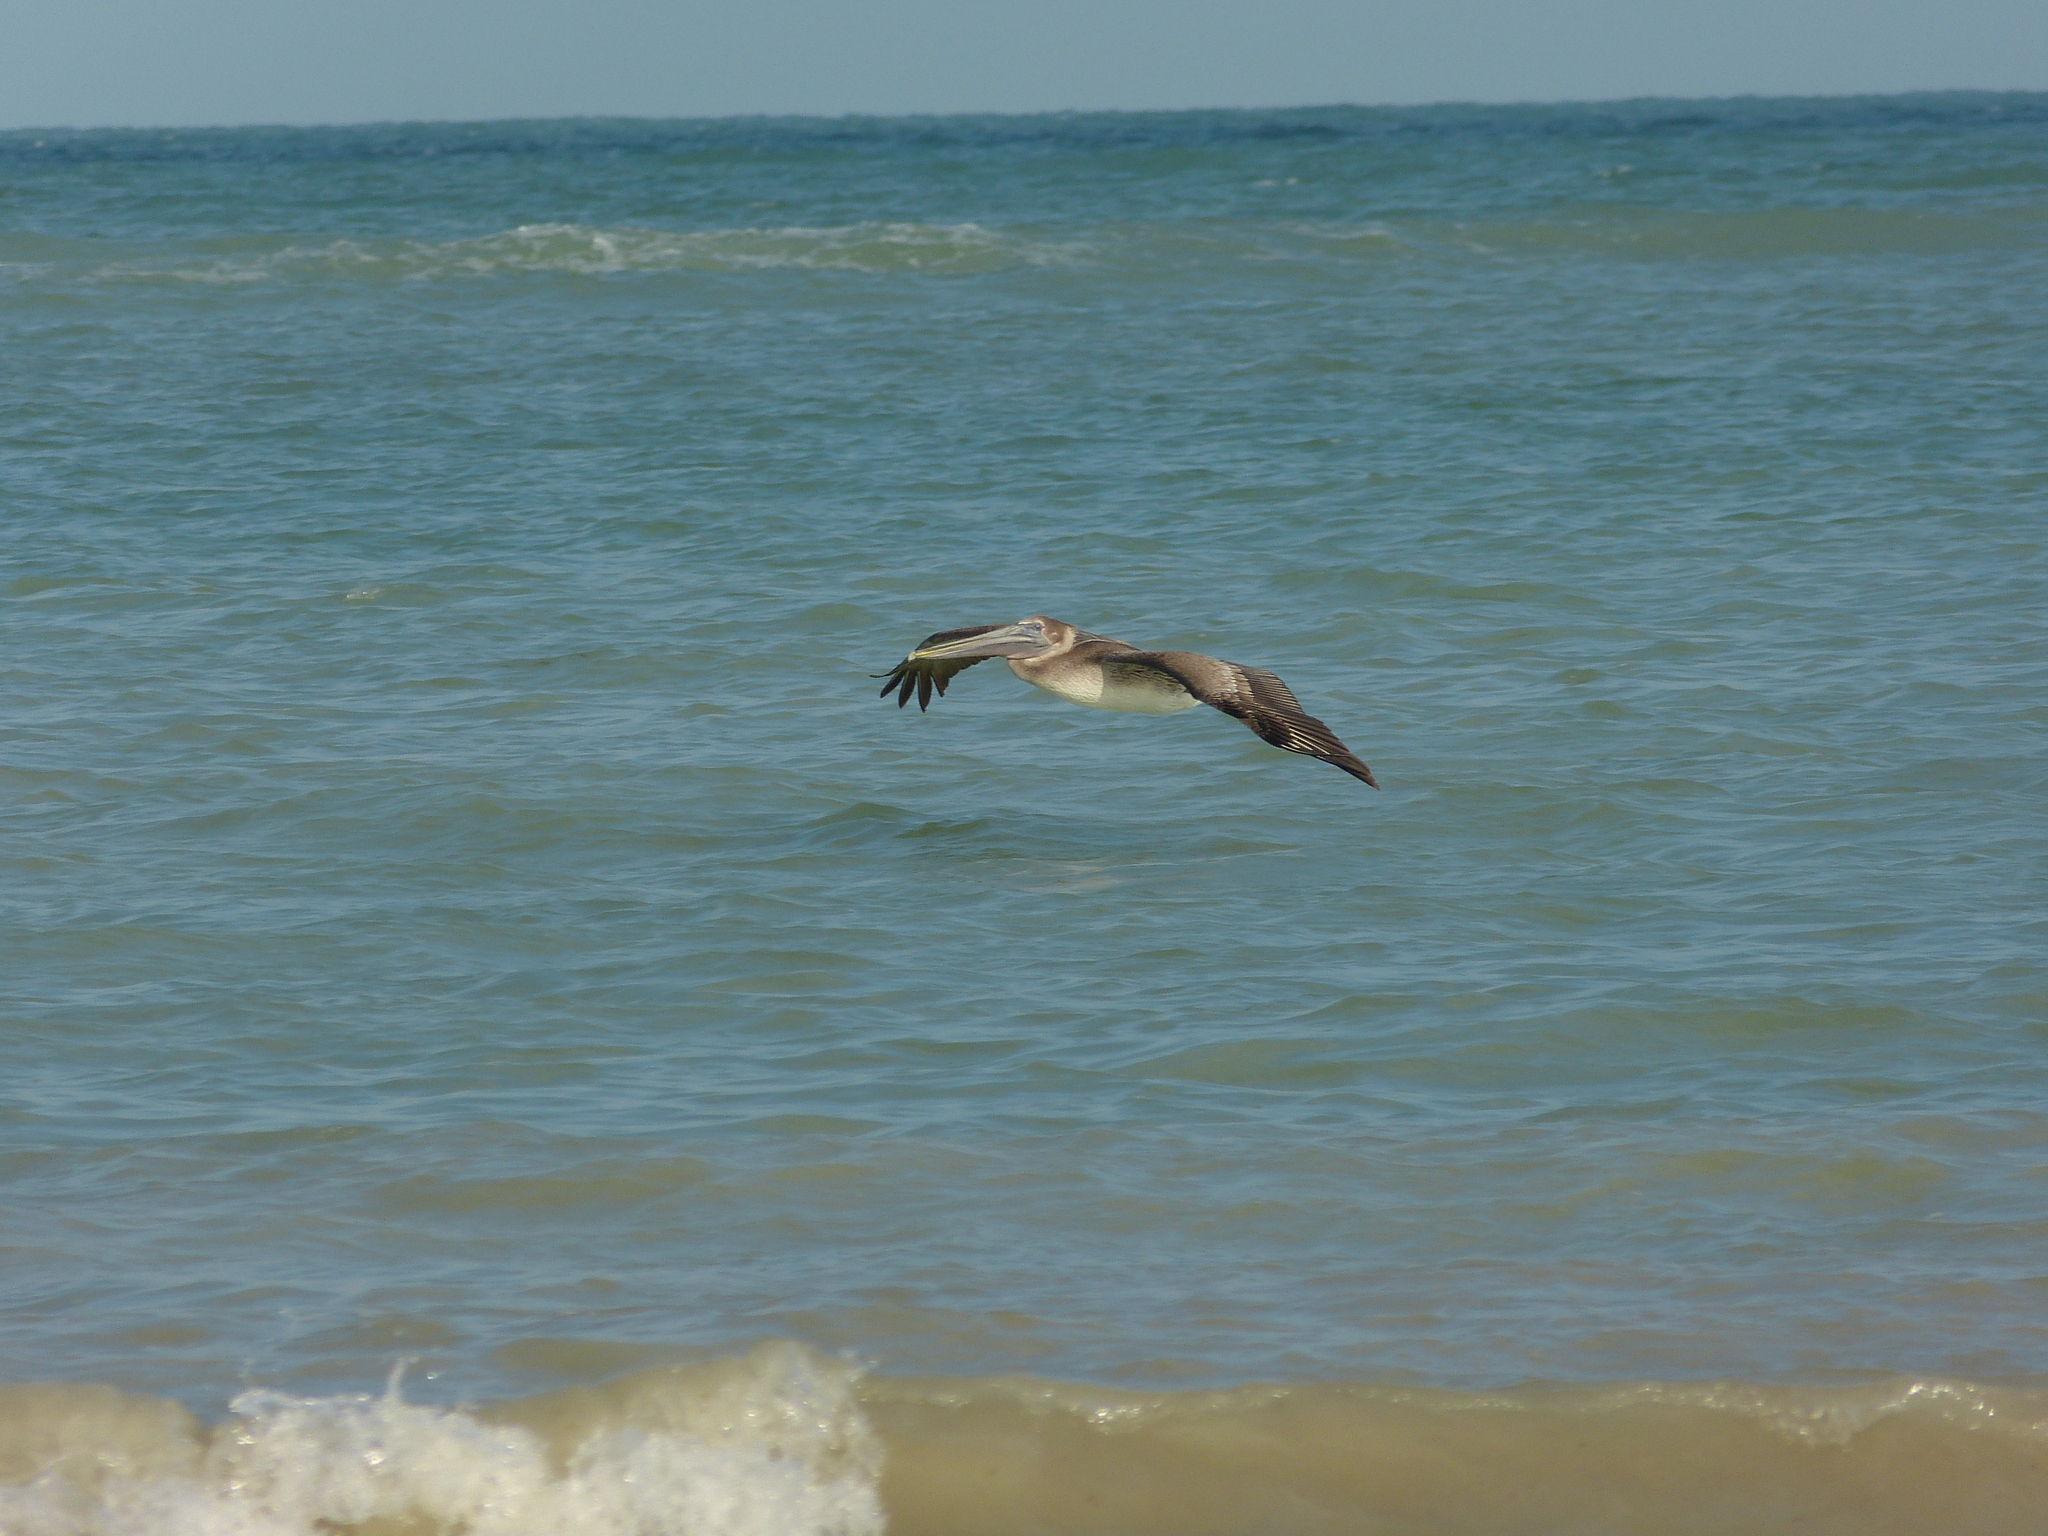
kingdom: Animalia
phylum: Chordata
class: Aves
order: Pelecaniformes
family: Pelecanidae
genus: Pelecanus
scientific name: Pelecanus occidentalis
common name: Brown pelican
